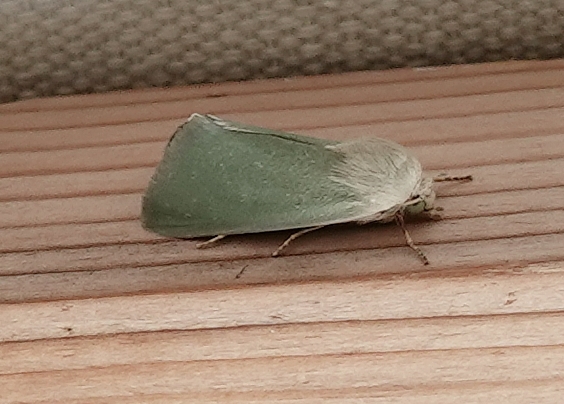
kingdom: Animalia
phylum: Arthropoda
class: Insecta
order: Lepidoptera
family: Noctuidae
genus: Schinia
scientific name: Schinia simplex
